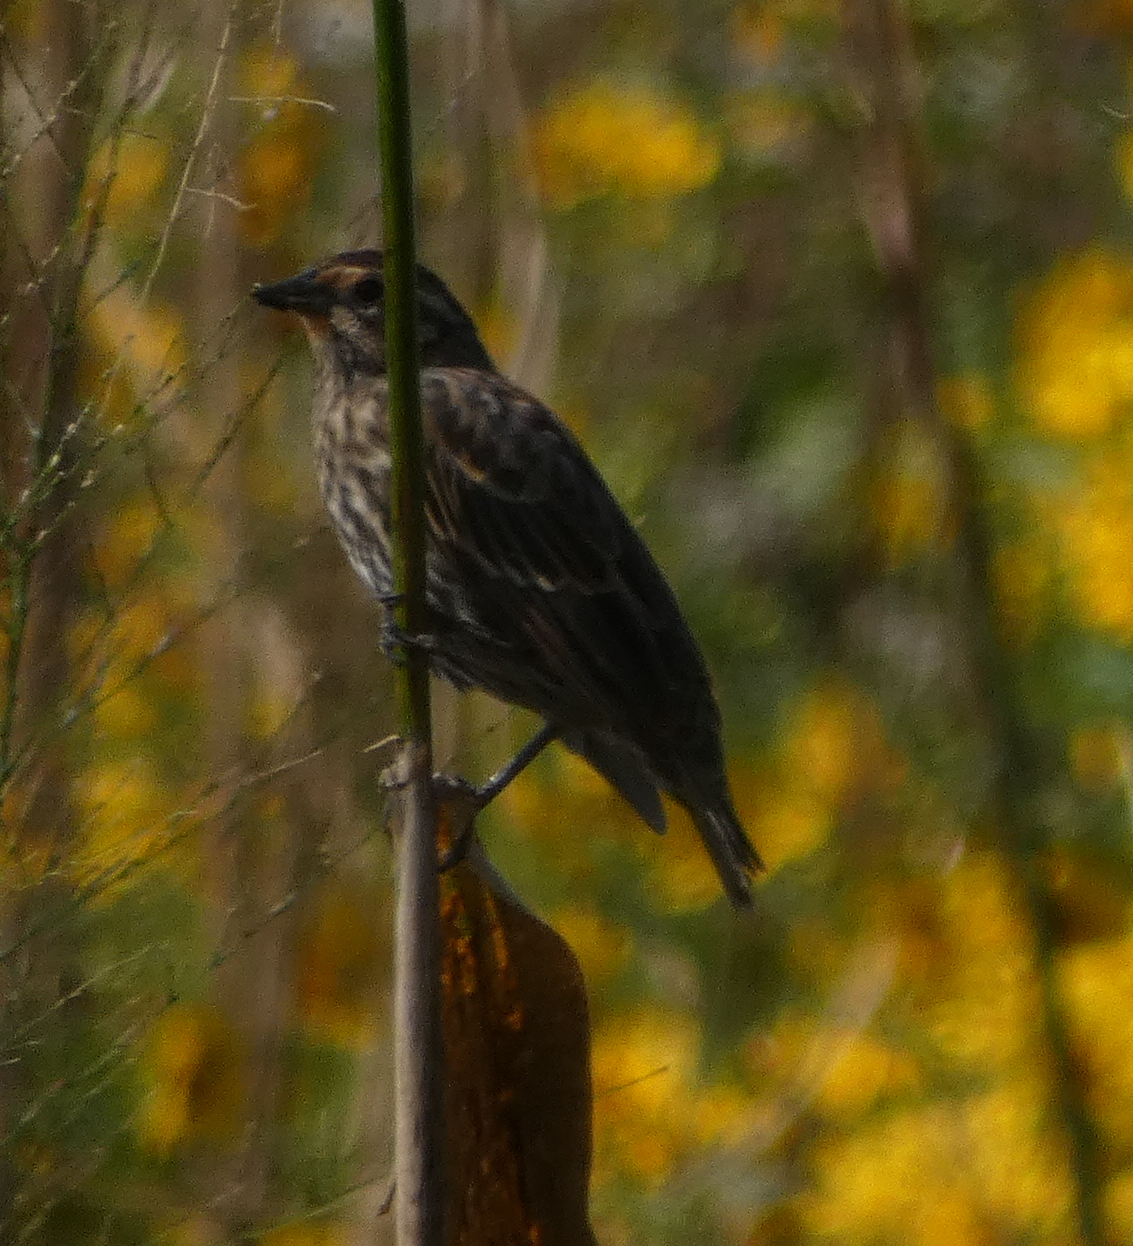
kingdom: Animalia
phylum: Chordata
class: Aves
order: Passeriformes
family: Icteridae
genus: Agelaius
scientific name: Agelaius phoeniceus
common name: Red-winged blackbird
